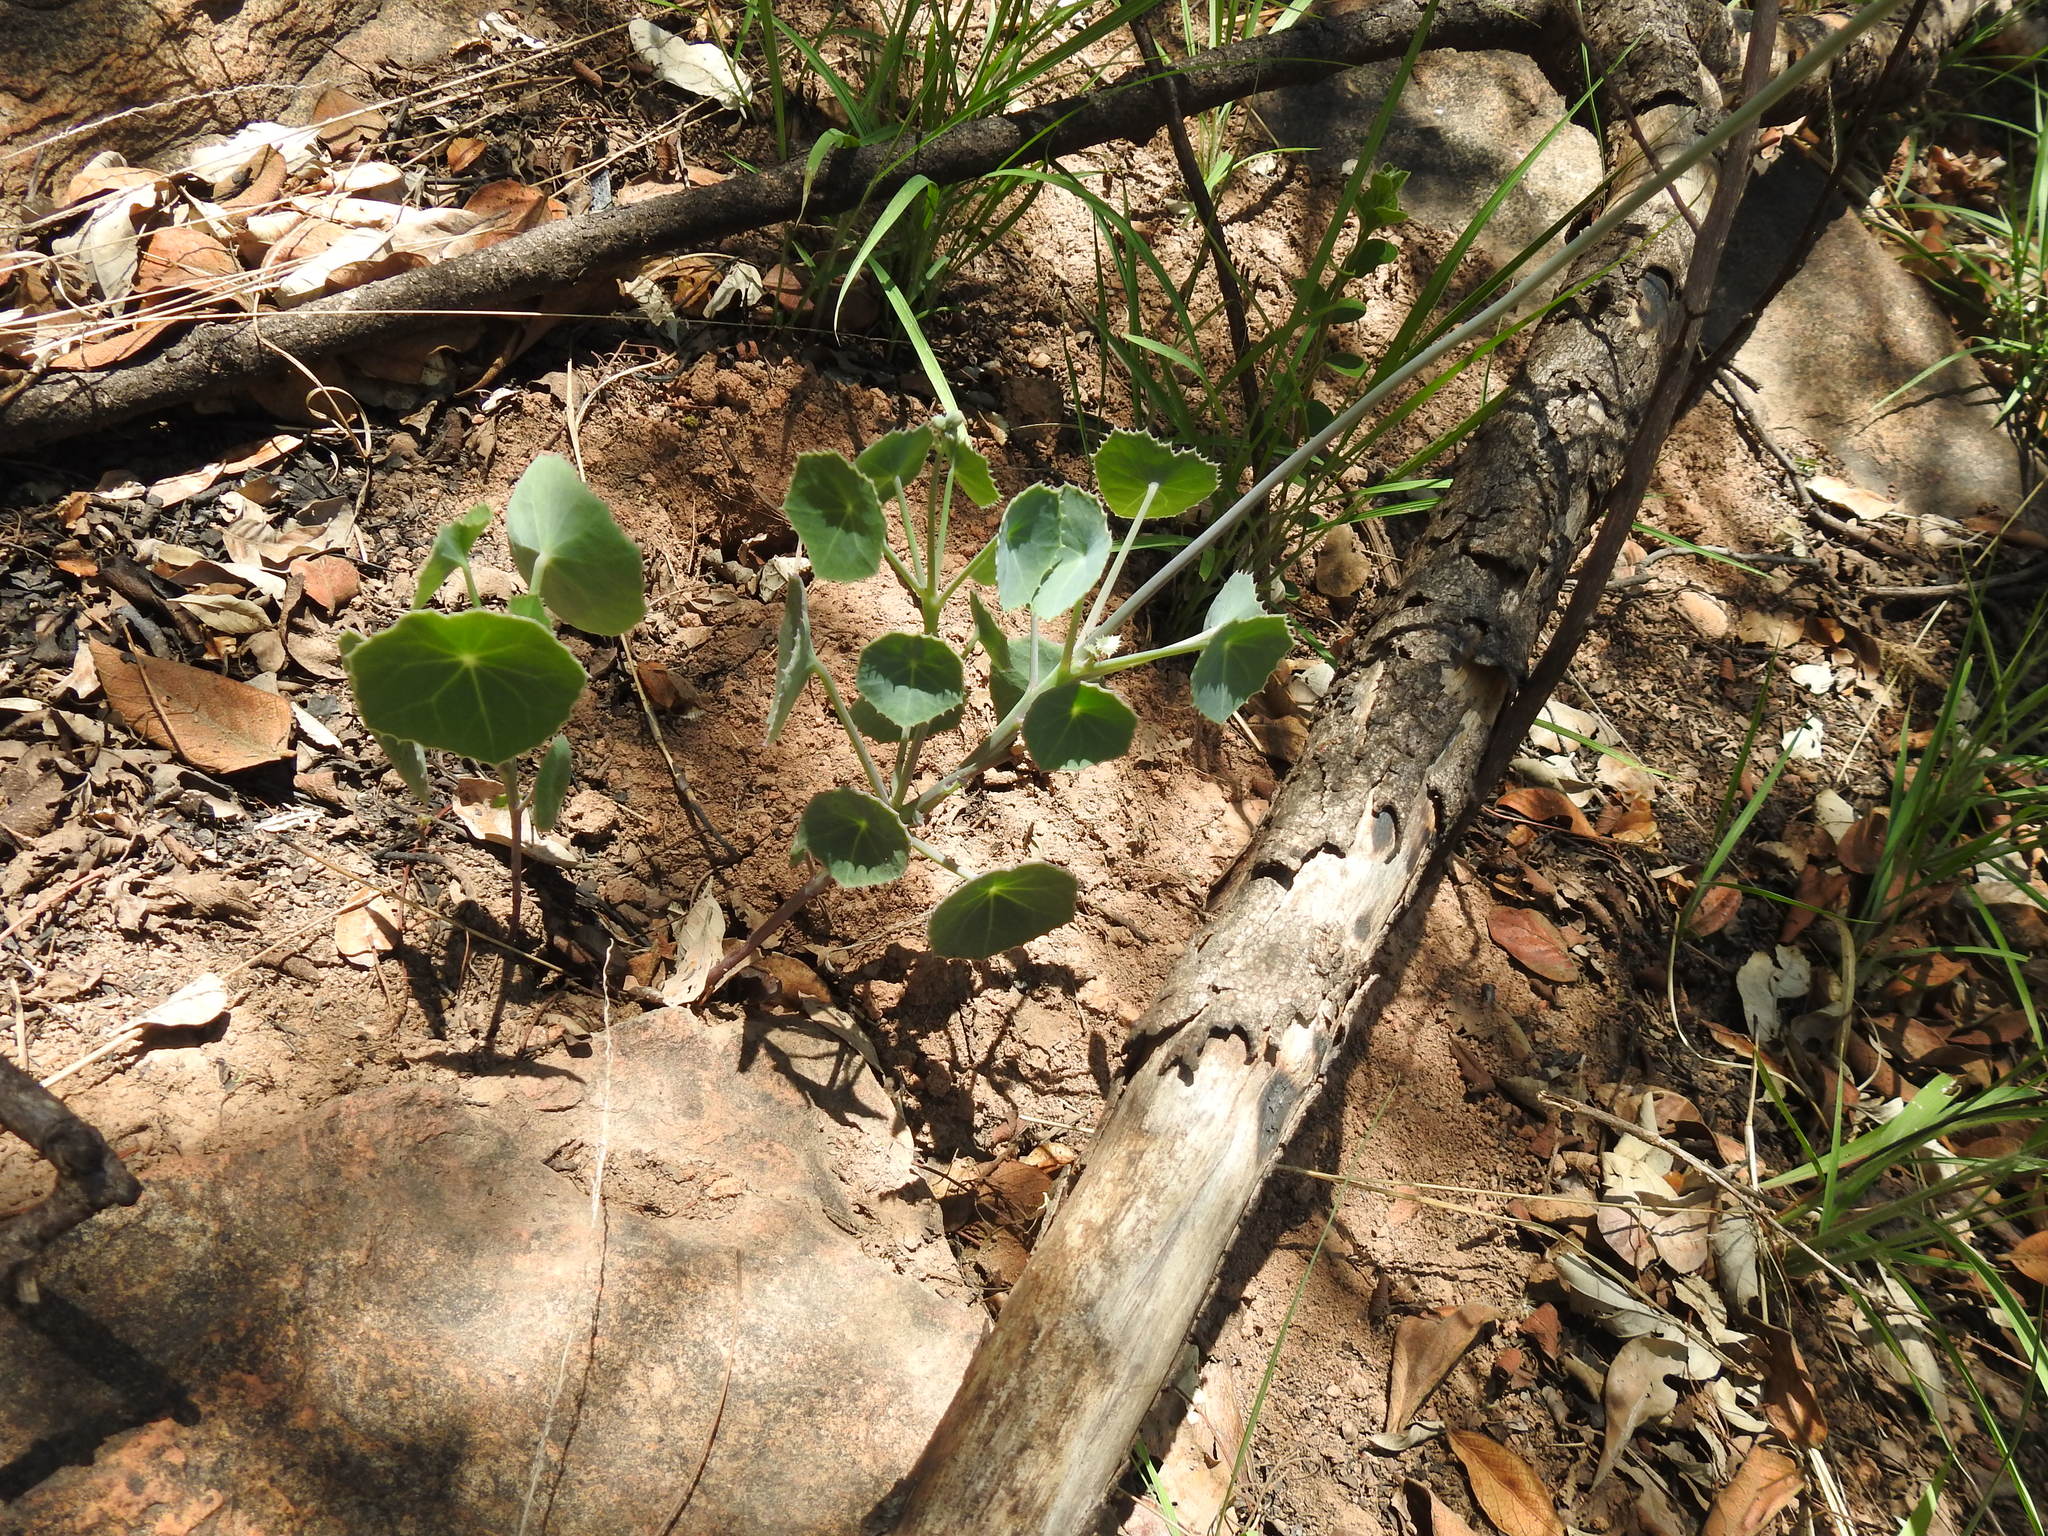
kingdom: Plantae
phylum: Tracheophyta
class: Magnoliopsida
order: Asterales
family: Asteraceae
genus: Senecio
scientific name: Senecio oxyriifolius
